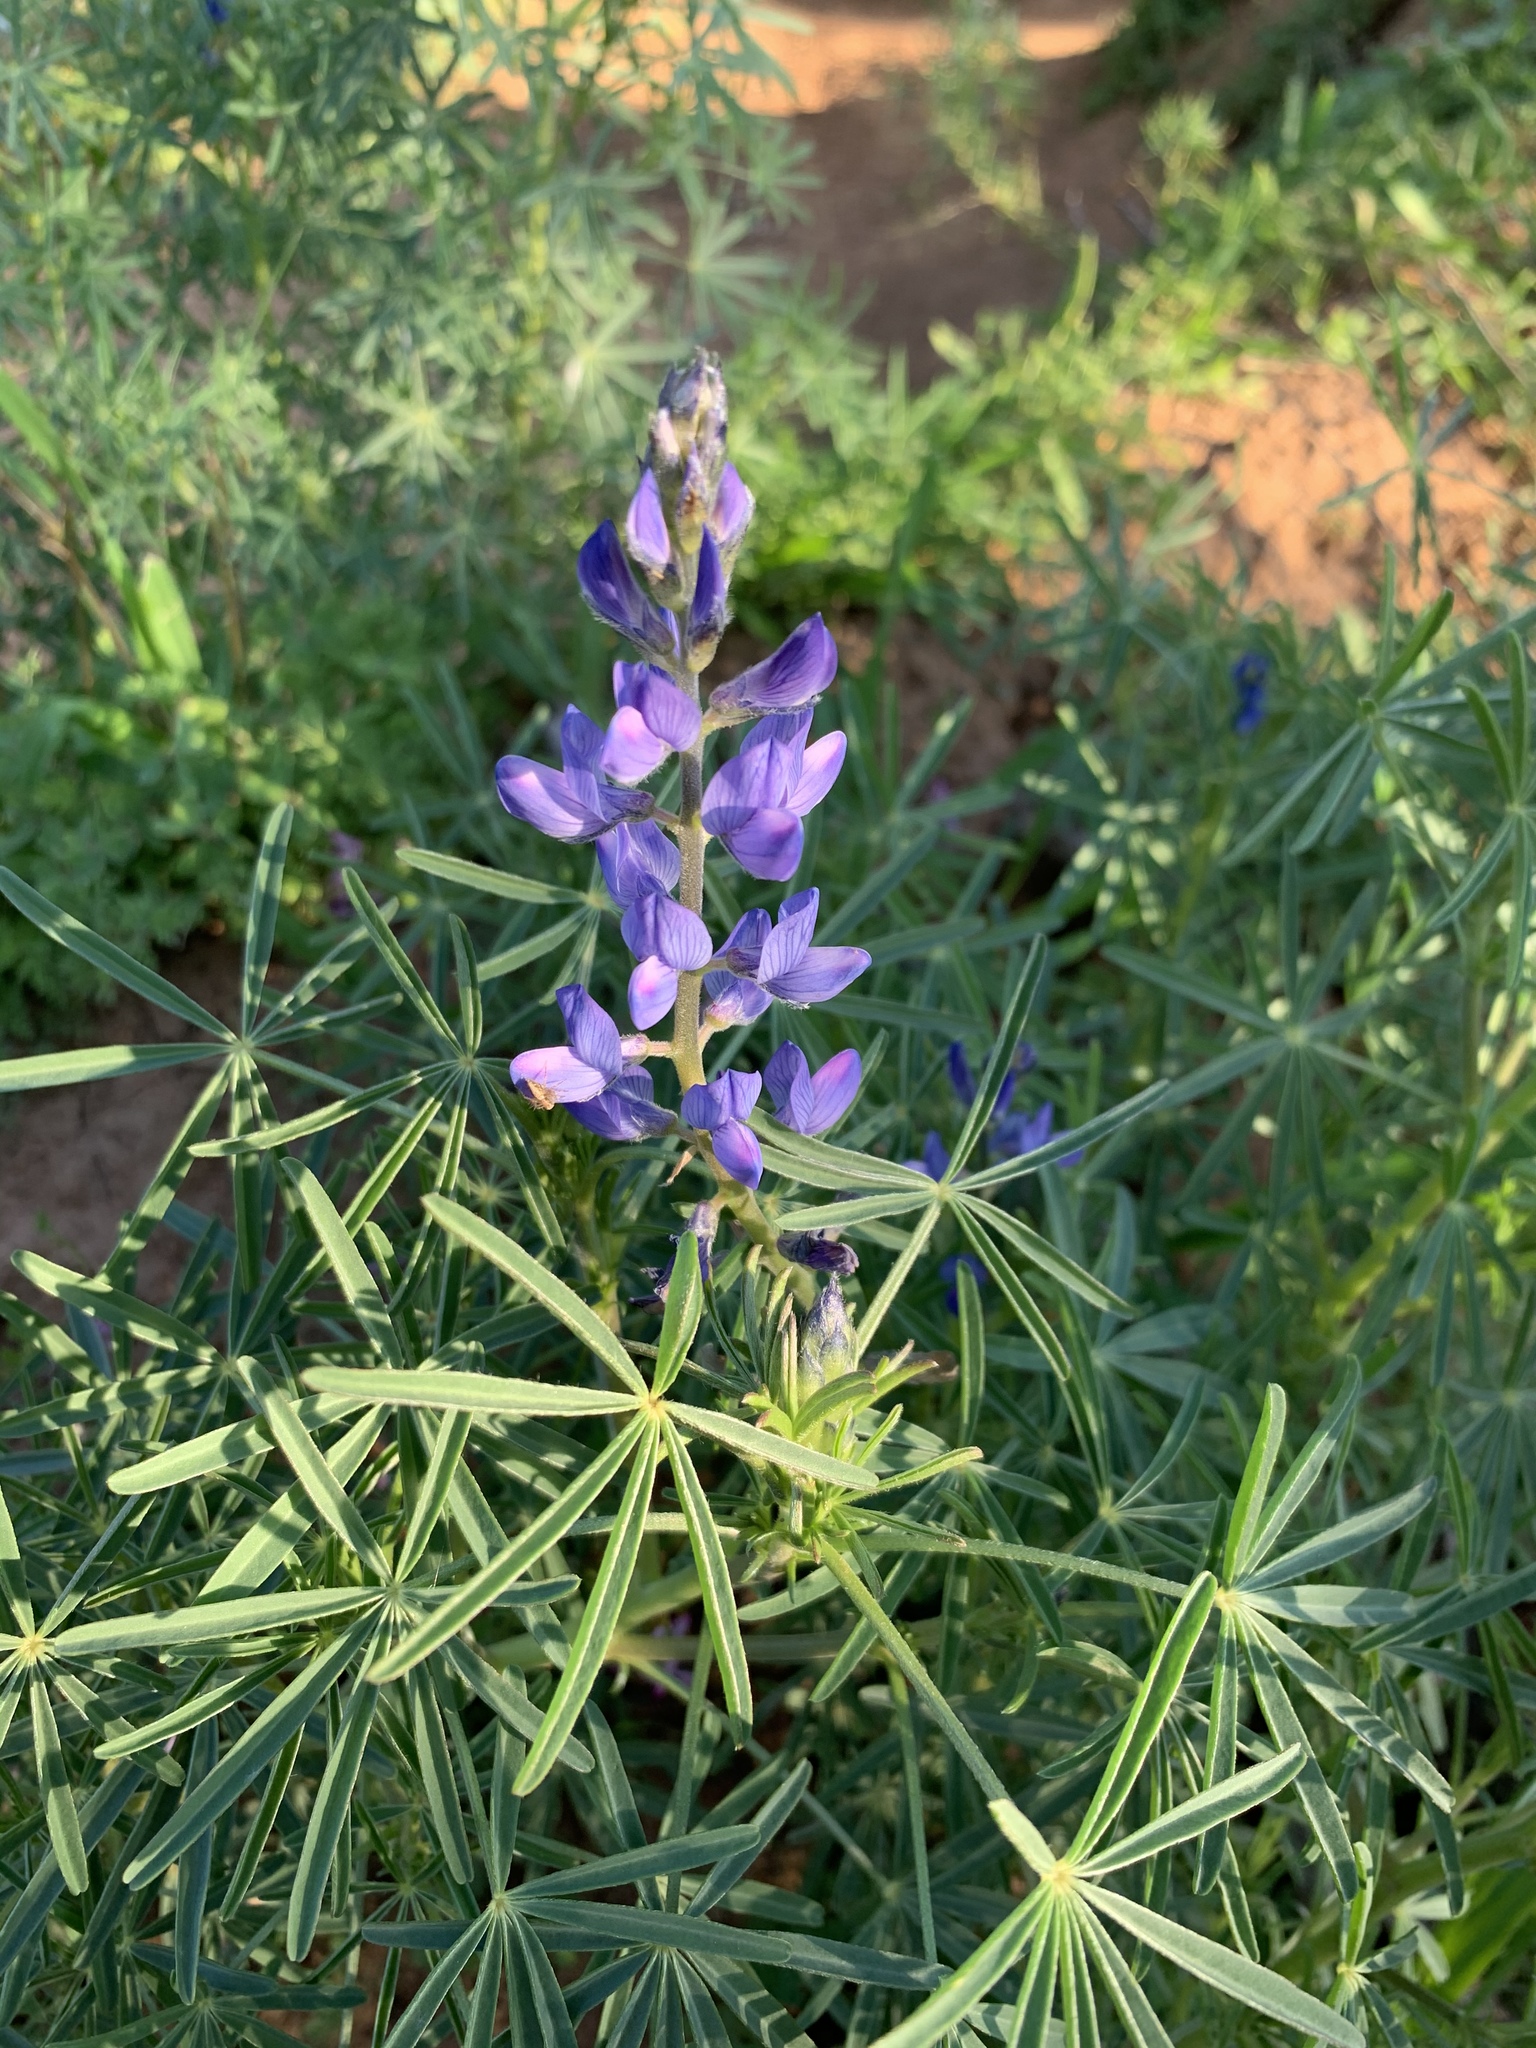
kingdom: Plantae
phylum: Tracheophyta
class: Magnoliopsida
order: Fabales
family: Fabaceae
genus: Lupinus
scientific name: Lupinus angustifolius
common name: Narrow-leaved lupin
